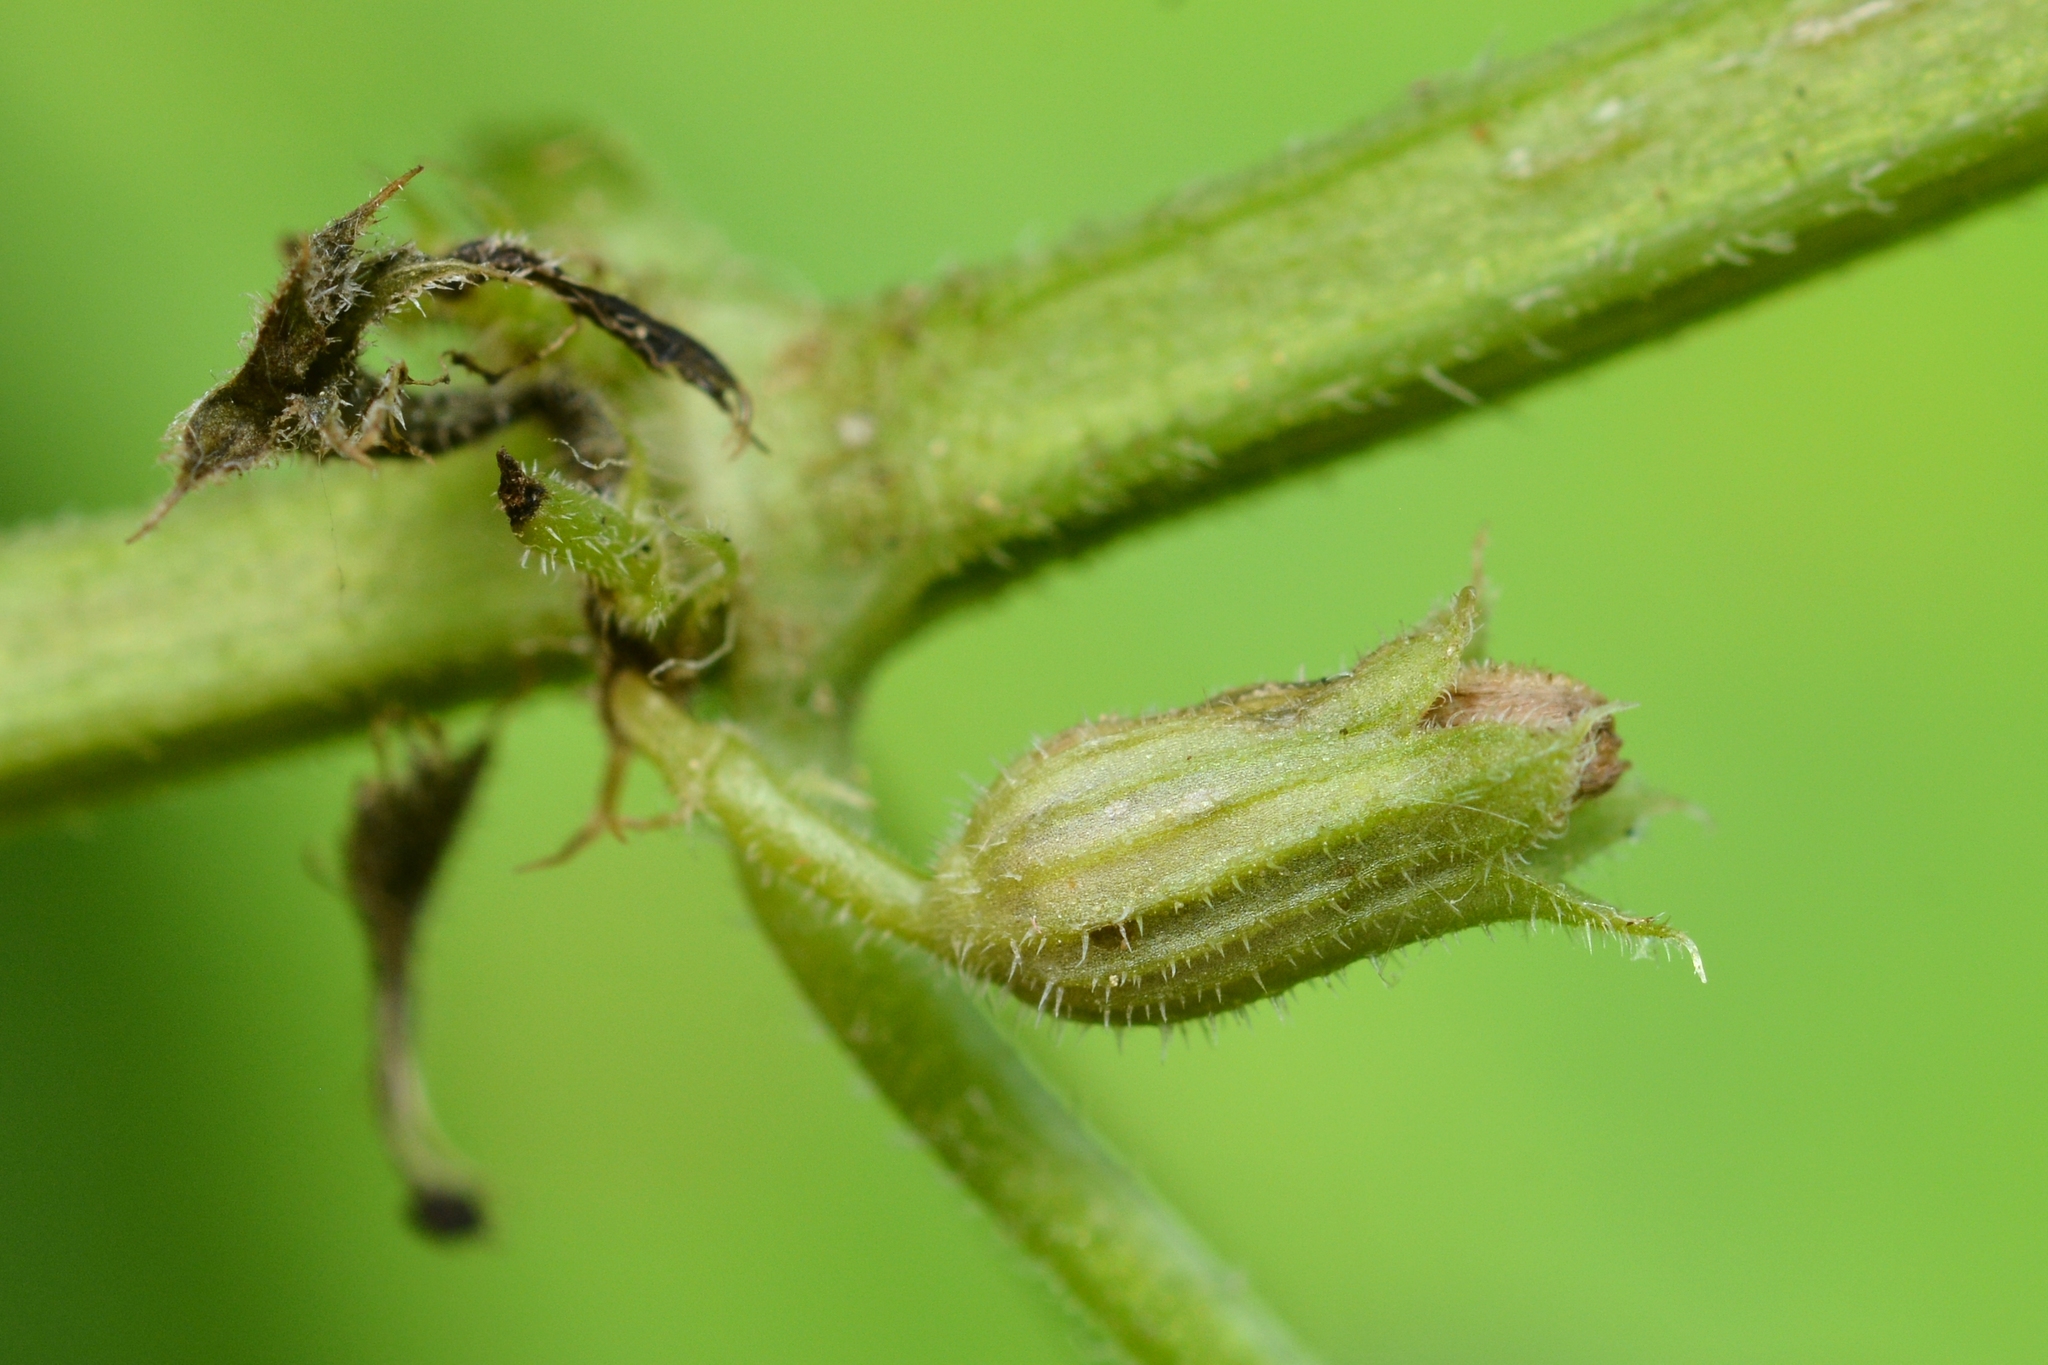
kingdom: Animalia
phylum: Arthropoda
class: Insecta
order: Diptera
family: Cecidomyiidae
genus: Janetiella
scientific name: Janetiella glechomae
